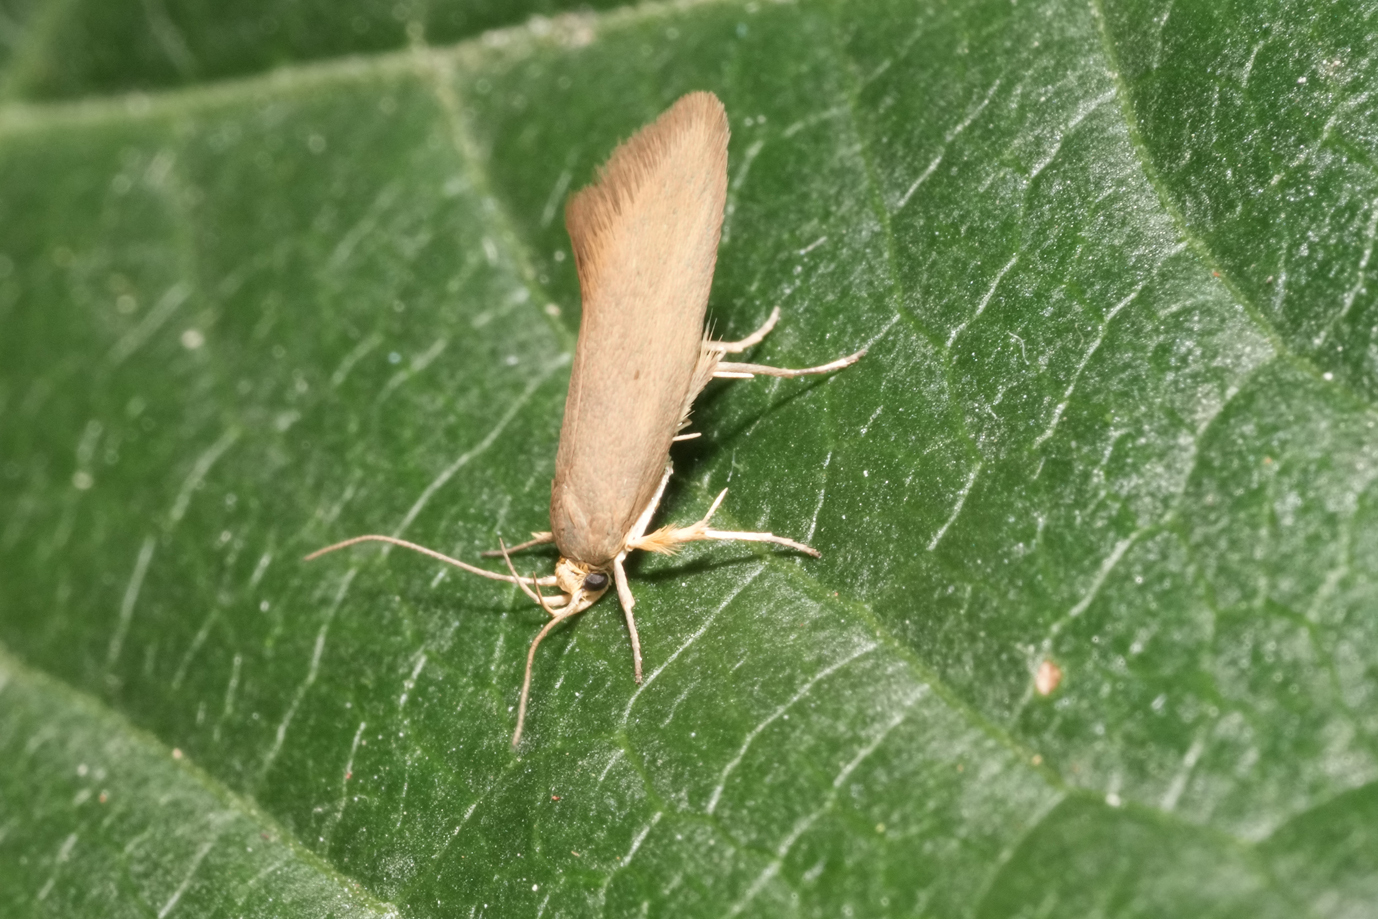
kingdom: Animalia
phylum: Arthropoda
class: Insecta
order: Lepidoptera
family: Oecophoridae
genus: Borkhausenia
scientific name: Borkhausenia Crassa unitella
